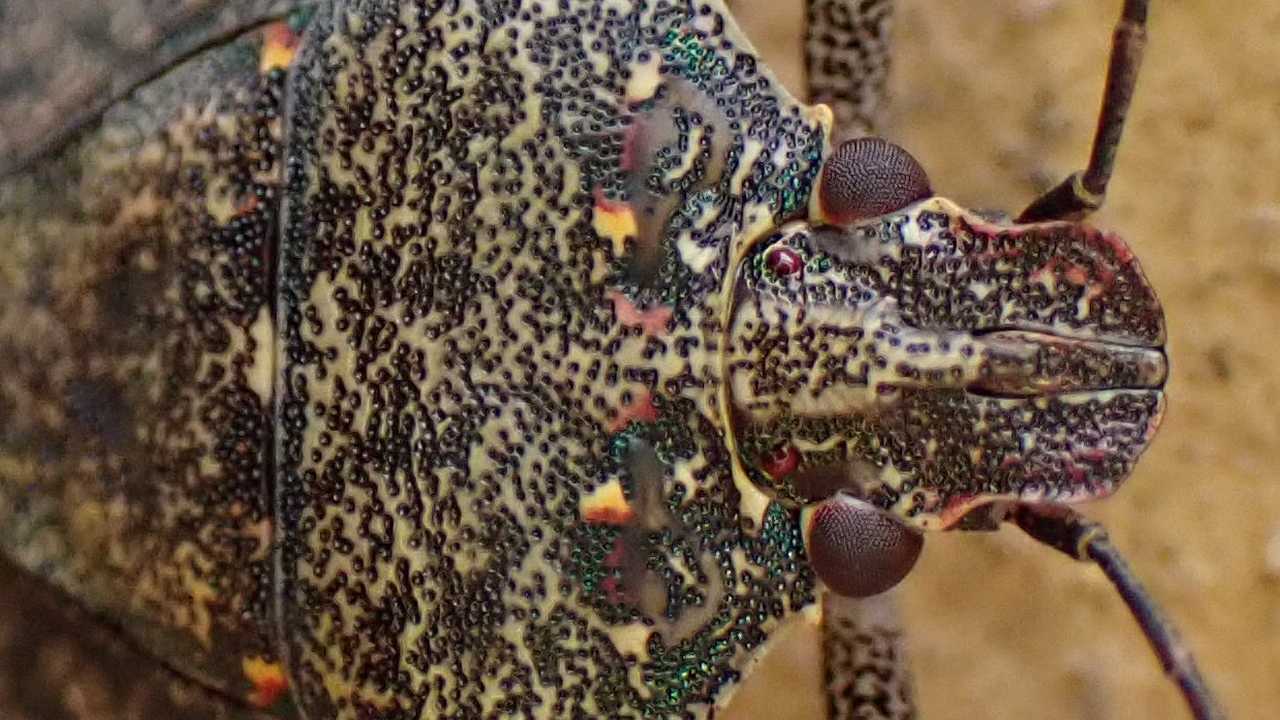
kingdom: Animalia
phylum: Arthropoda
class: Insecta
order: Hemiptera
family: Pentatomidae
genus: Halyomorpha
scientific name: Halyomorpha halys
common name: Brown marmorated stink bug
